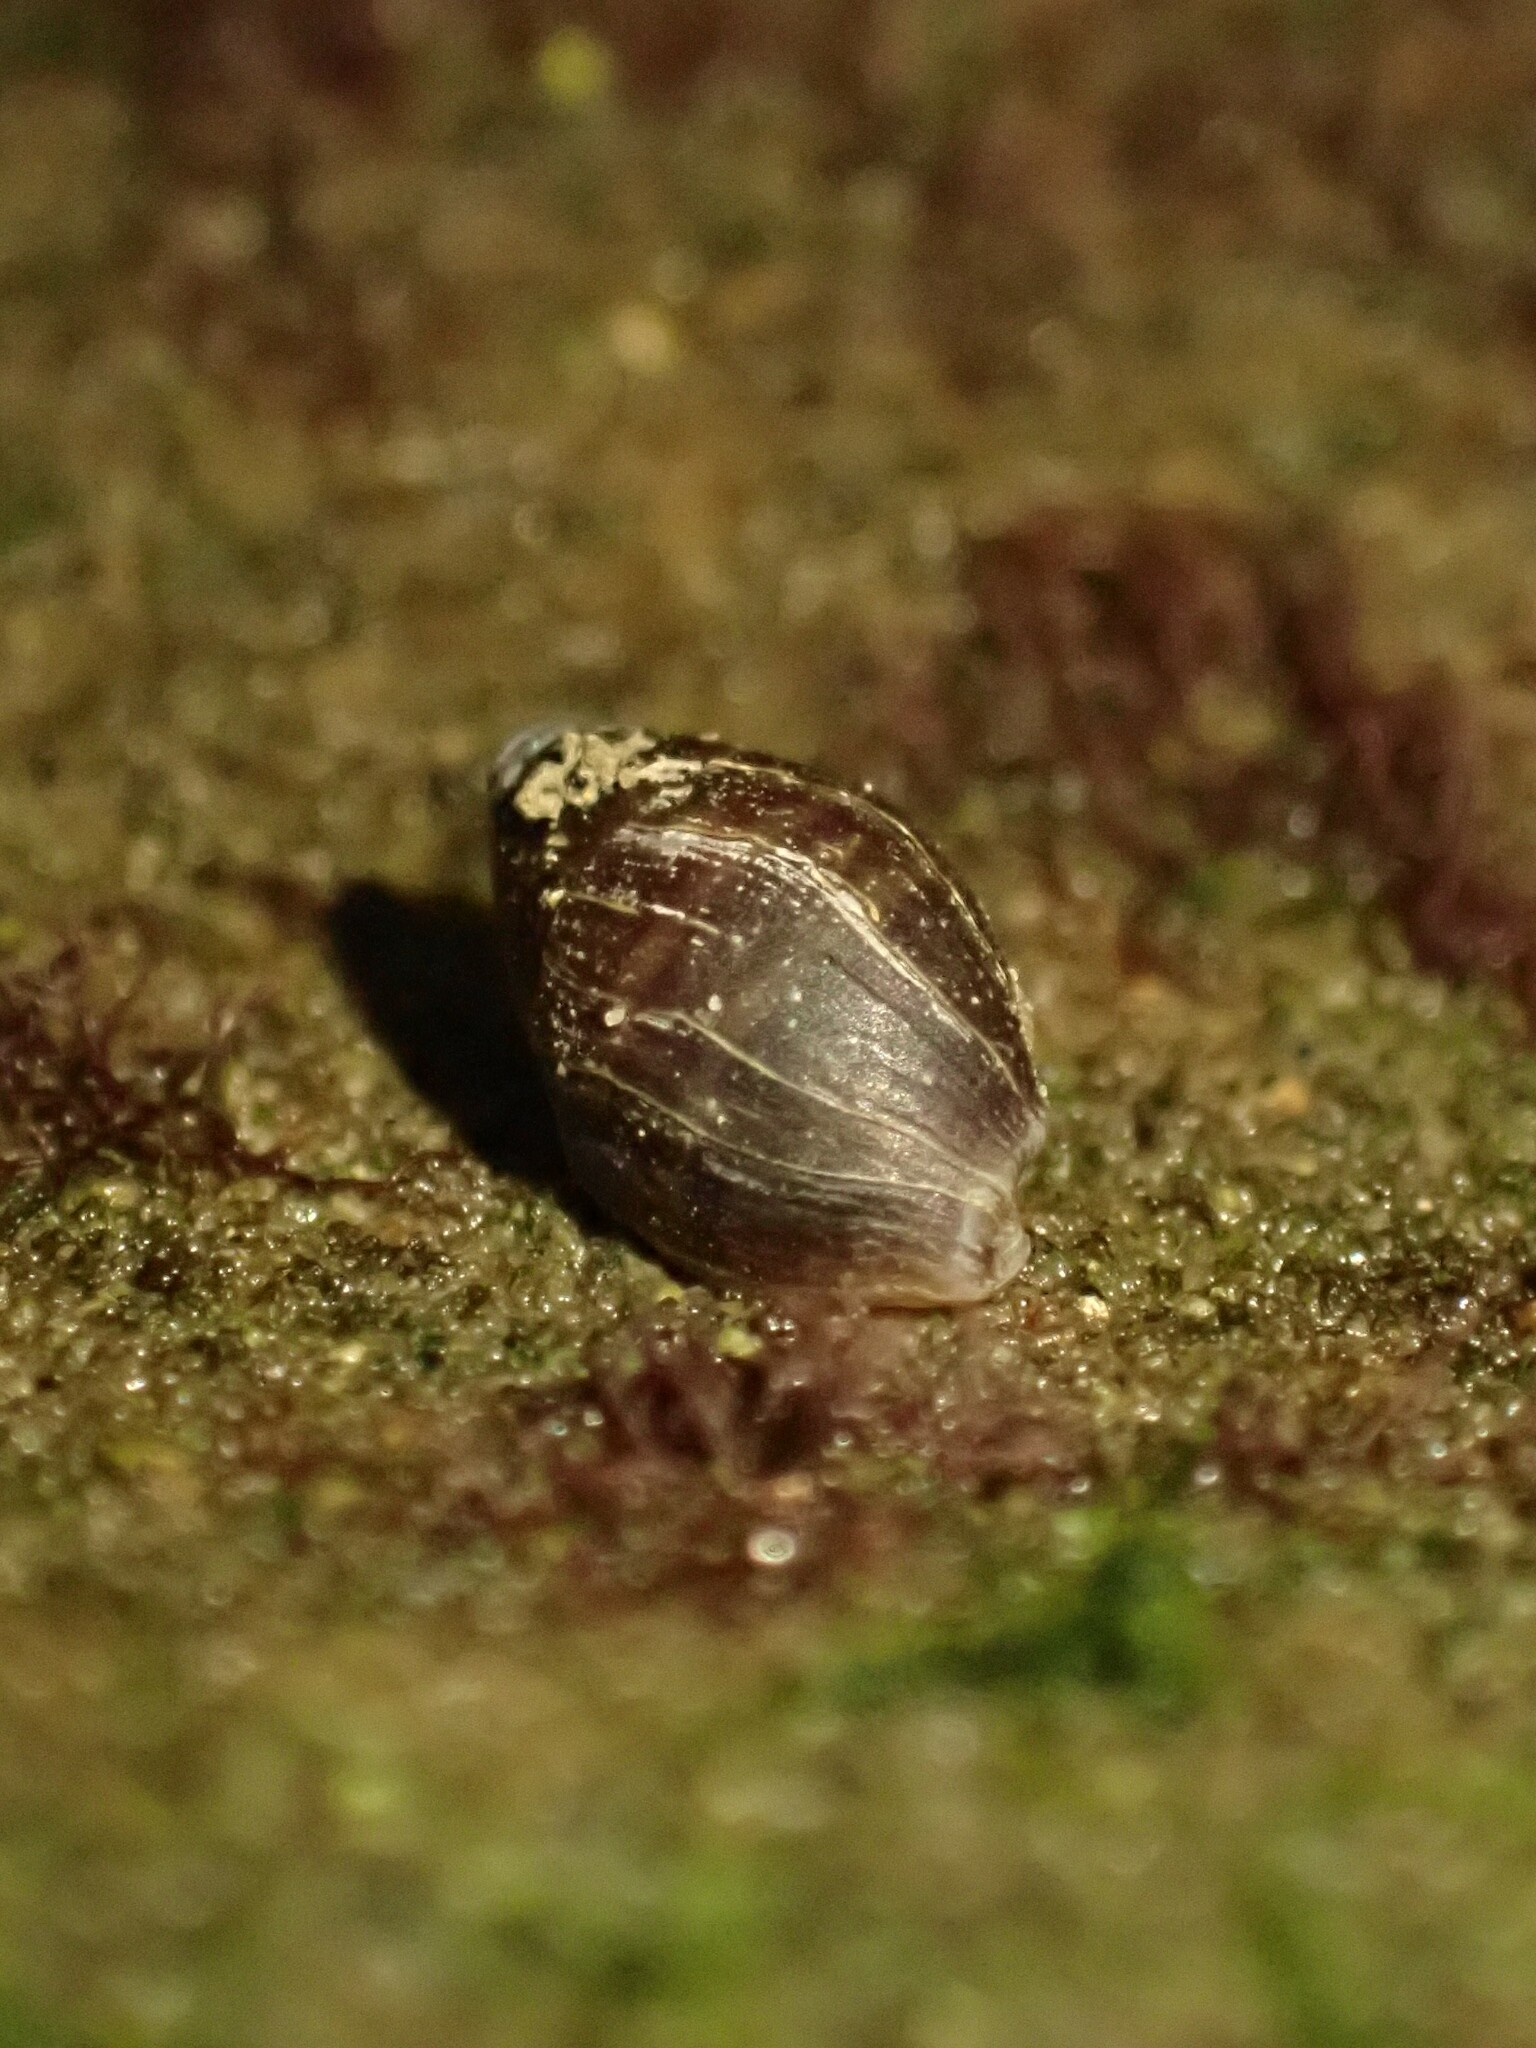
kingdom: Animalia
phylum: Mollusca
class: Gastropoda
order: Ellobiida
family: Ellobiidae
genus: Pleuroloba
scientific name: Pleuroloba costellaris
